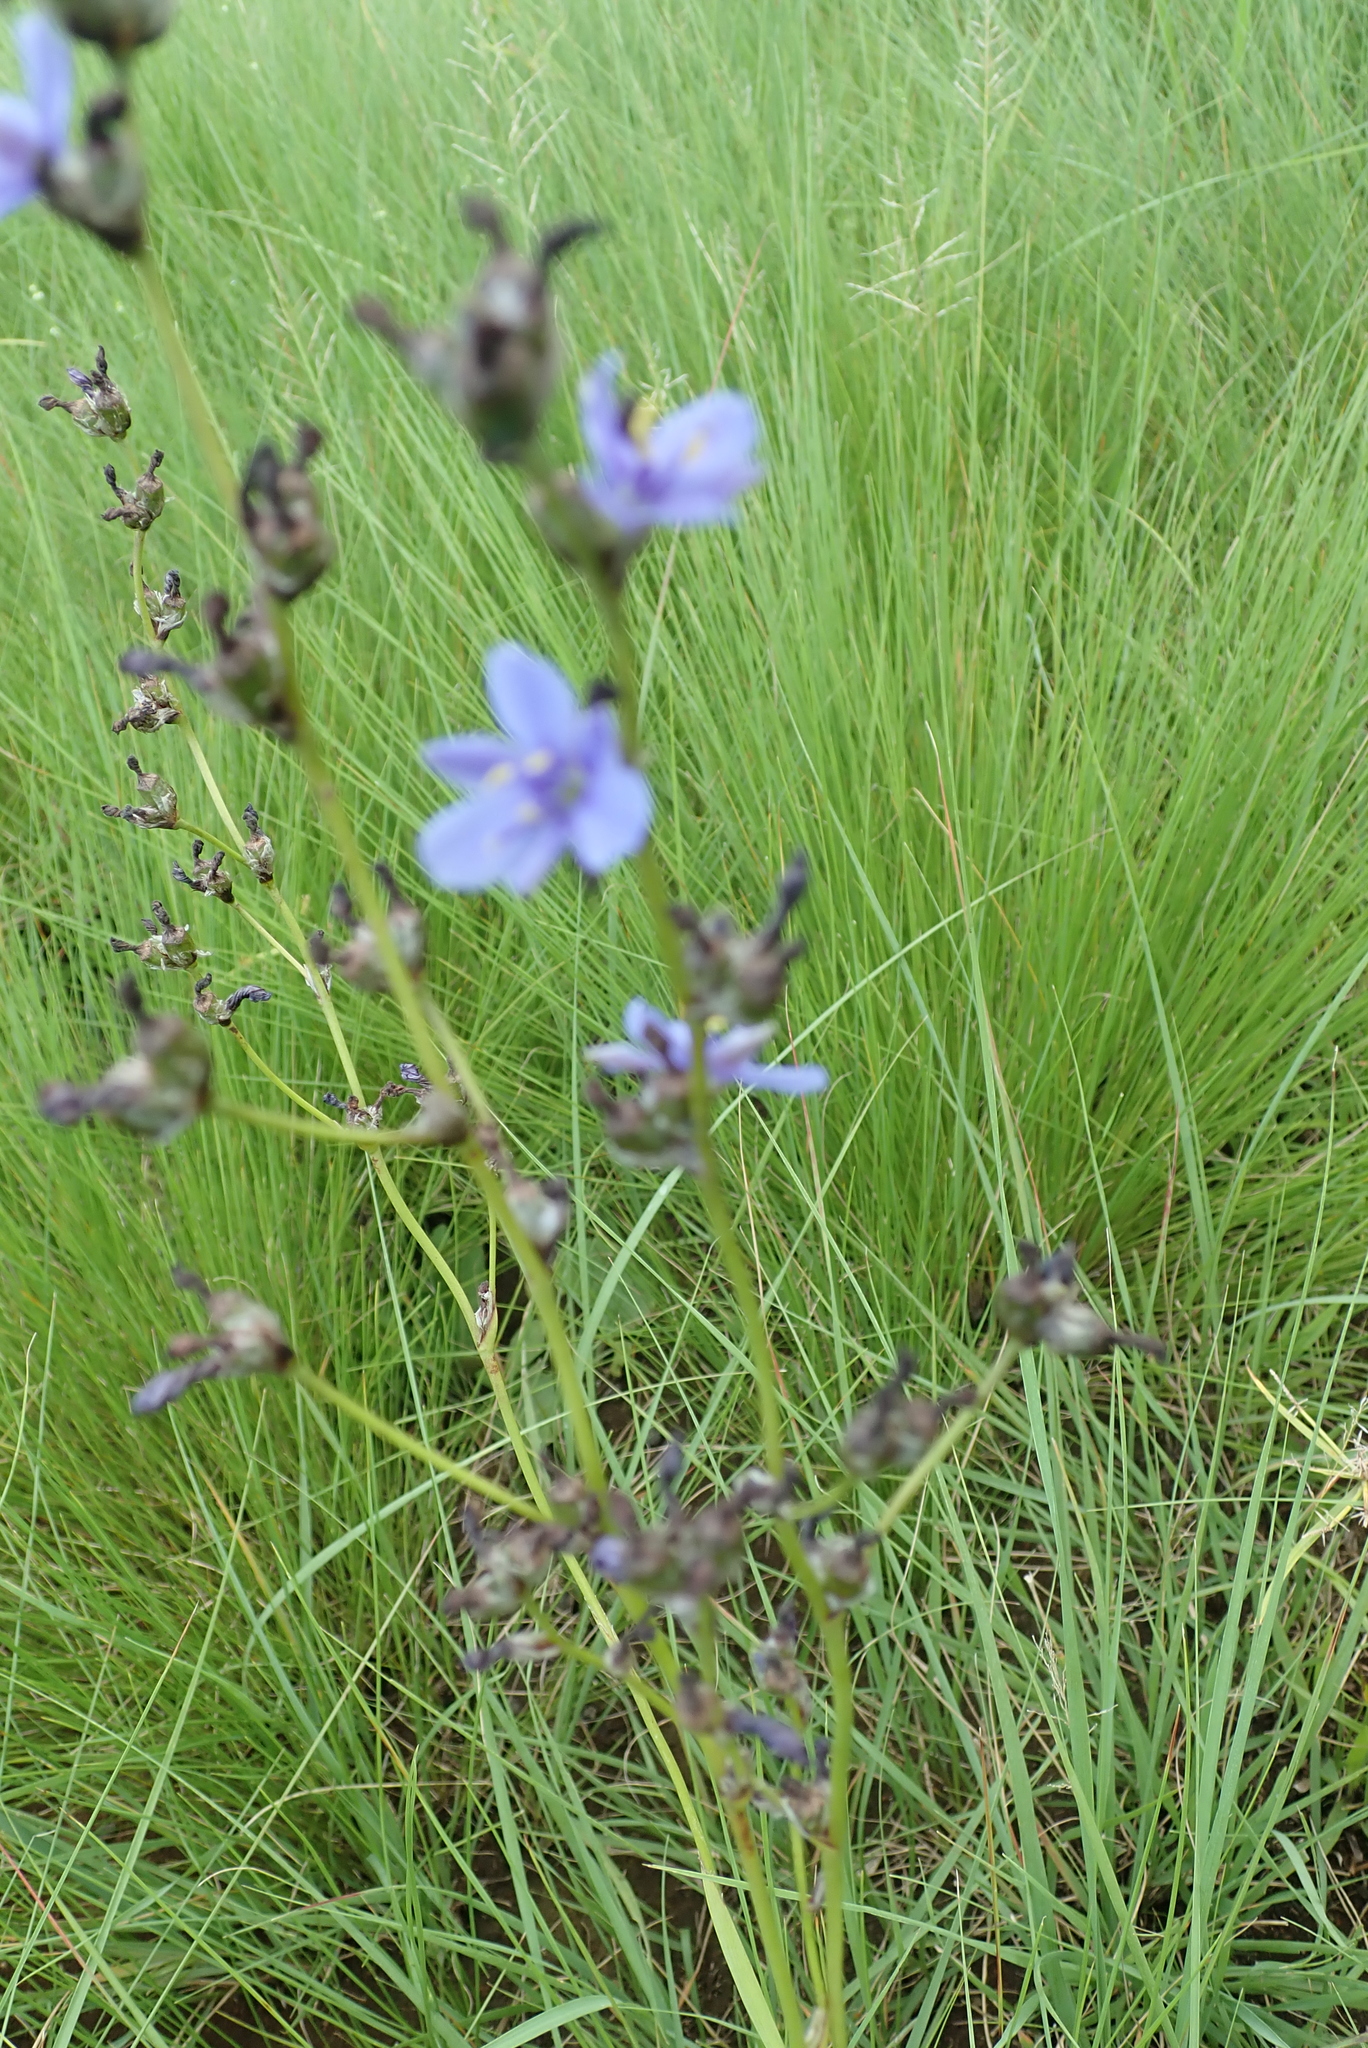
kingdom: Plantae
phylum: Tracheophyta
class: Liliopsida
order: Asparagales
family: Iridaceae
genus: Aristea
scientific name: Aristea torulosa
